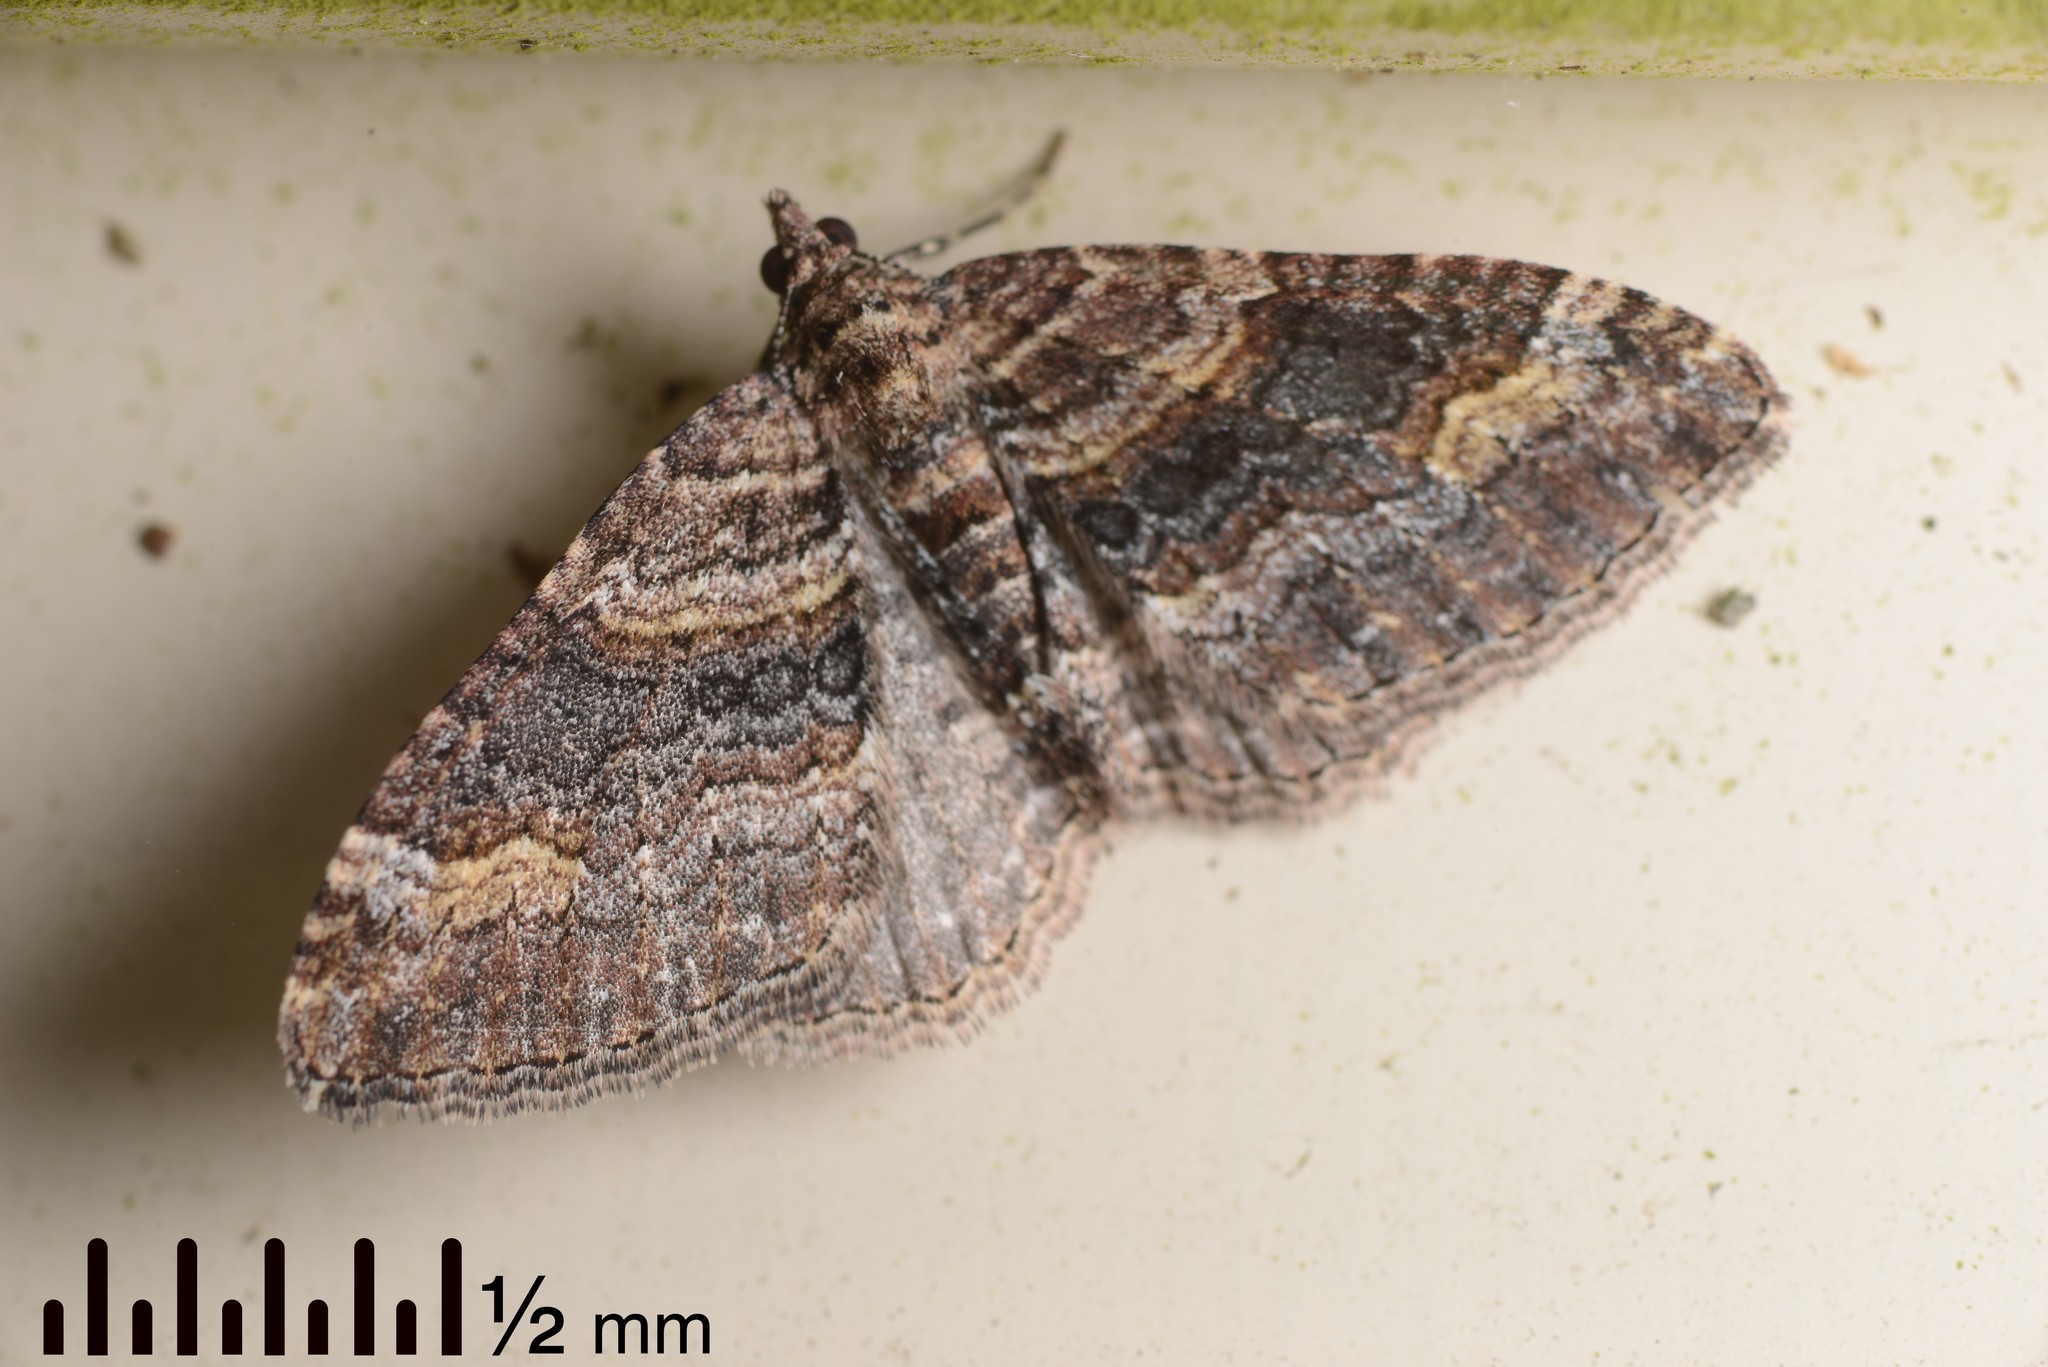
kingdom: Animalia
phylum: Arthropoda
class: Insecta
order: Lepidoptera
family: Geometridae
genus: Epyaxa
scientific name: Epyaxa lucidata
